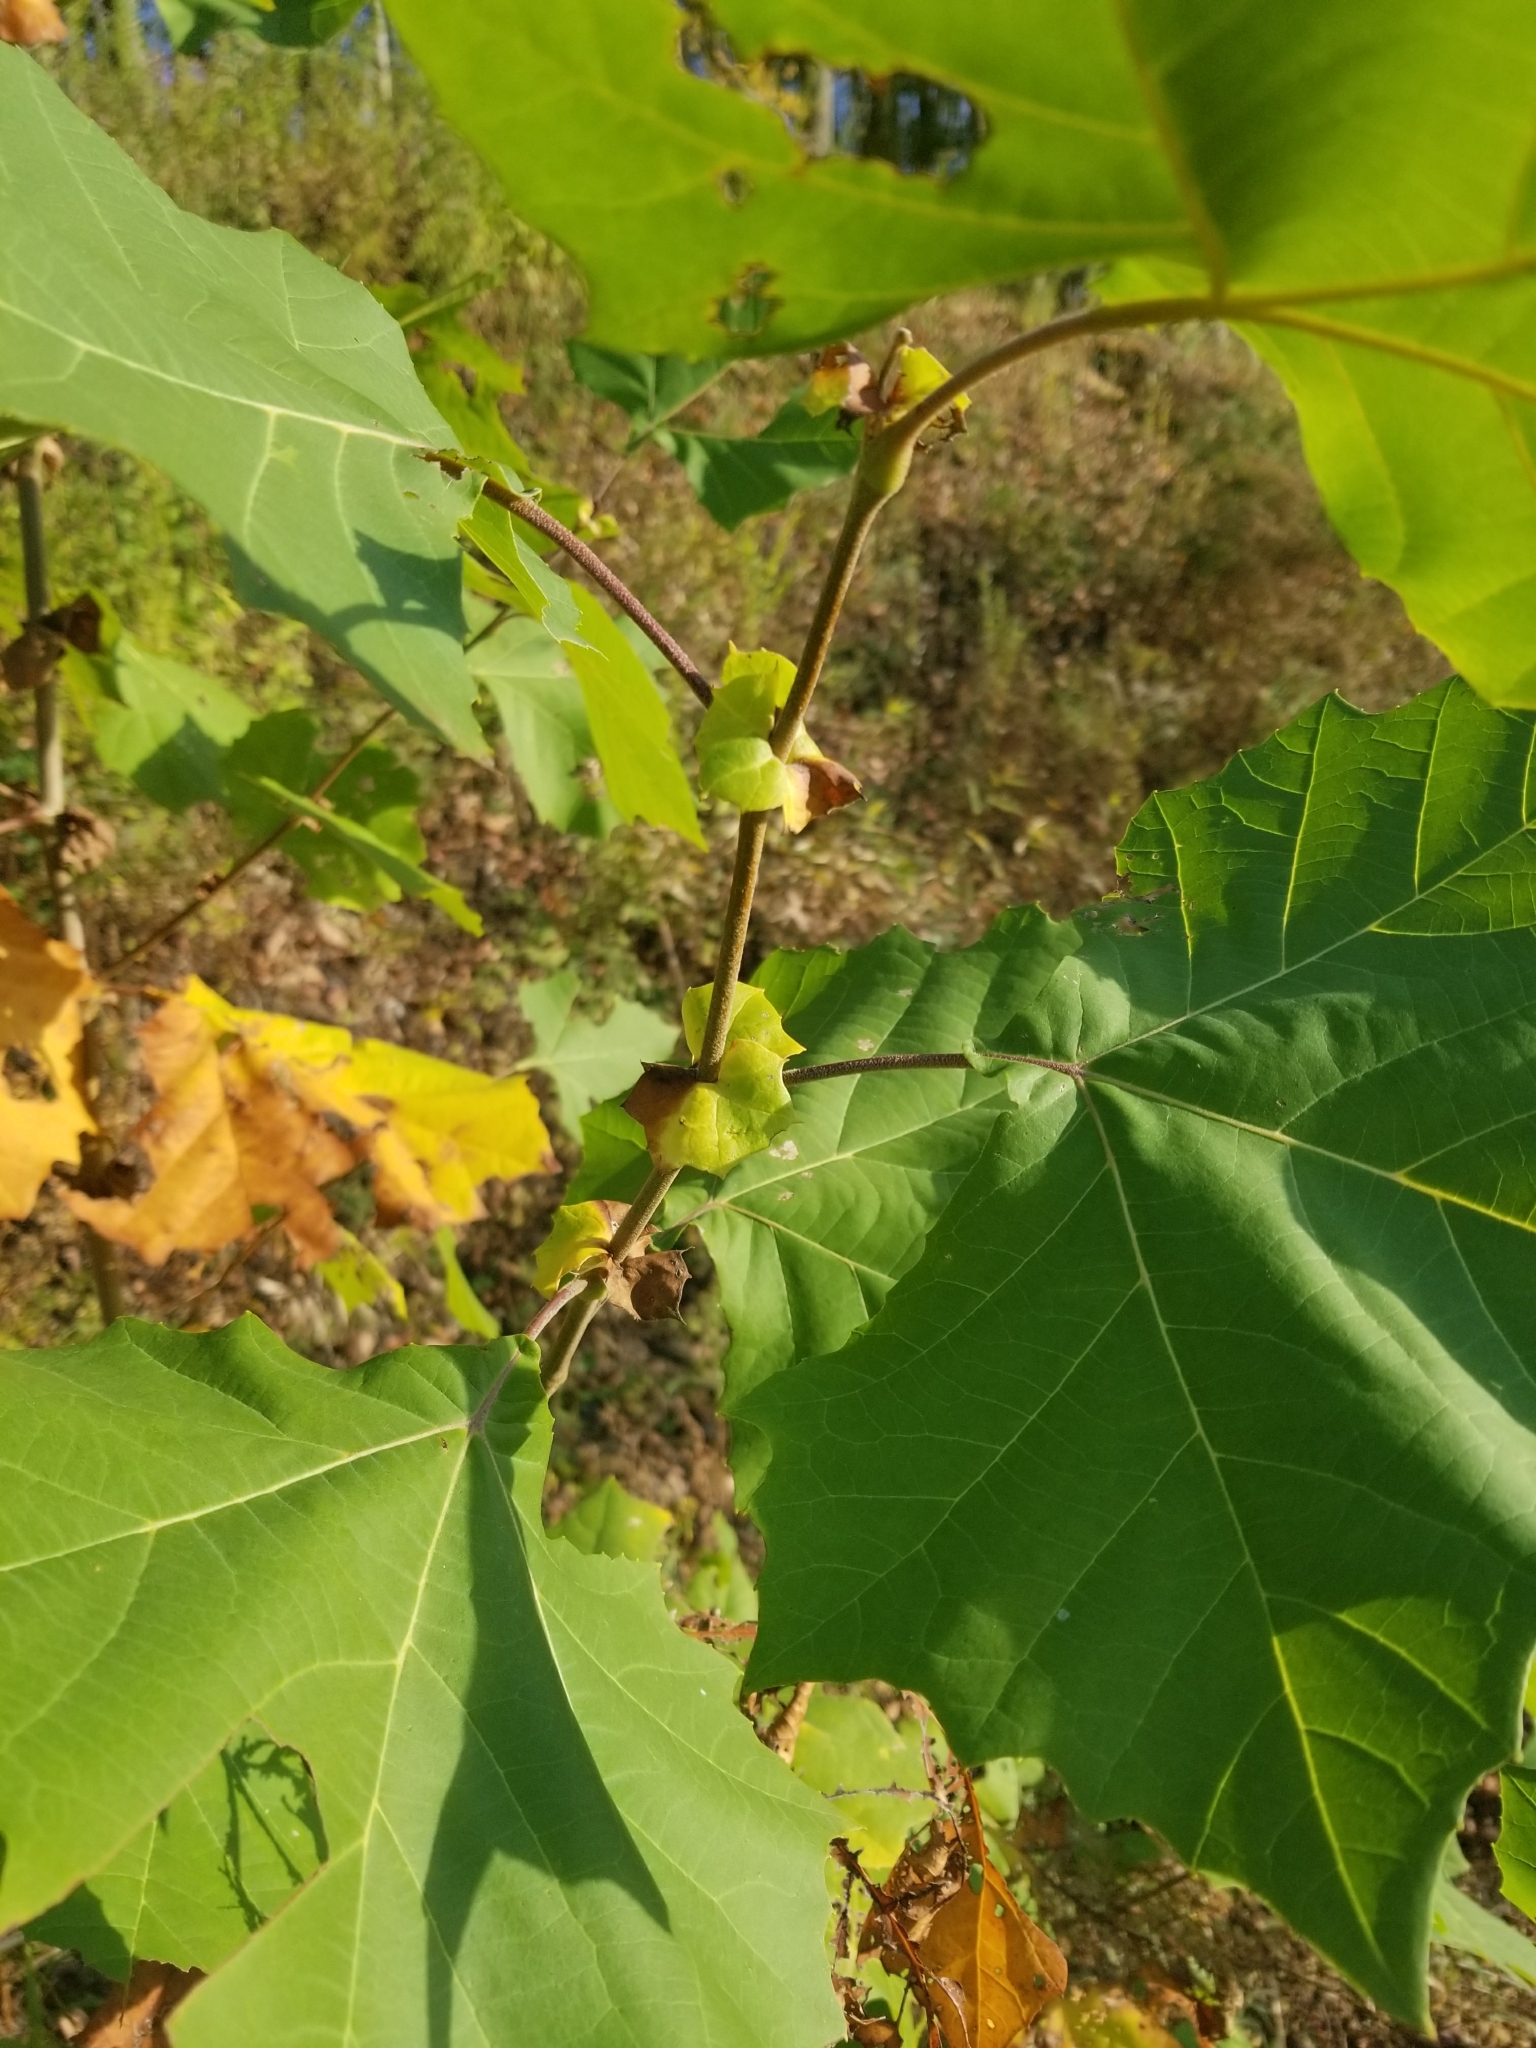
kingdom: Plantae
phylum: Tracheophyta
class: Magnoliopsida
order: Proteales
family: Platanaceae
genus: Platanus
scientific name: Platanus occidentalis
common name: American sycamore
